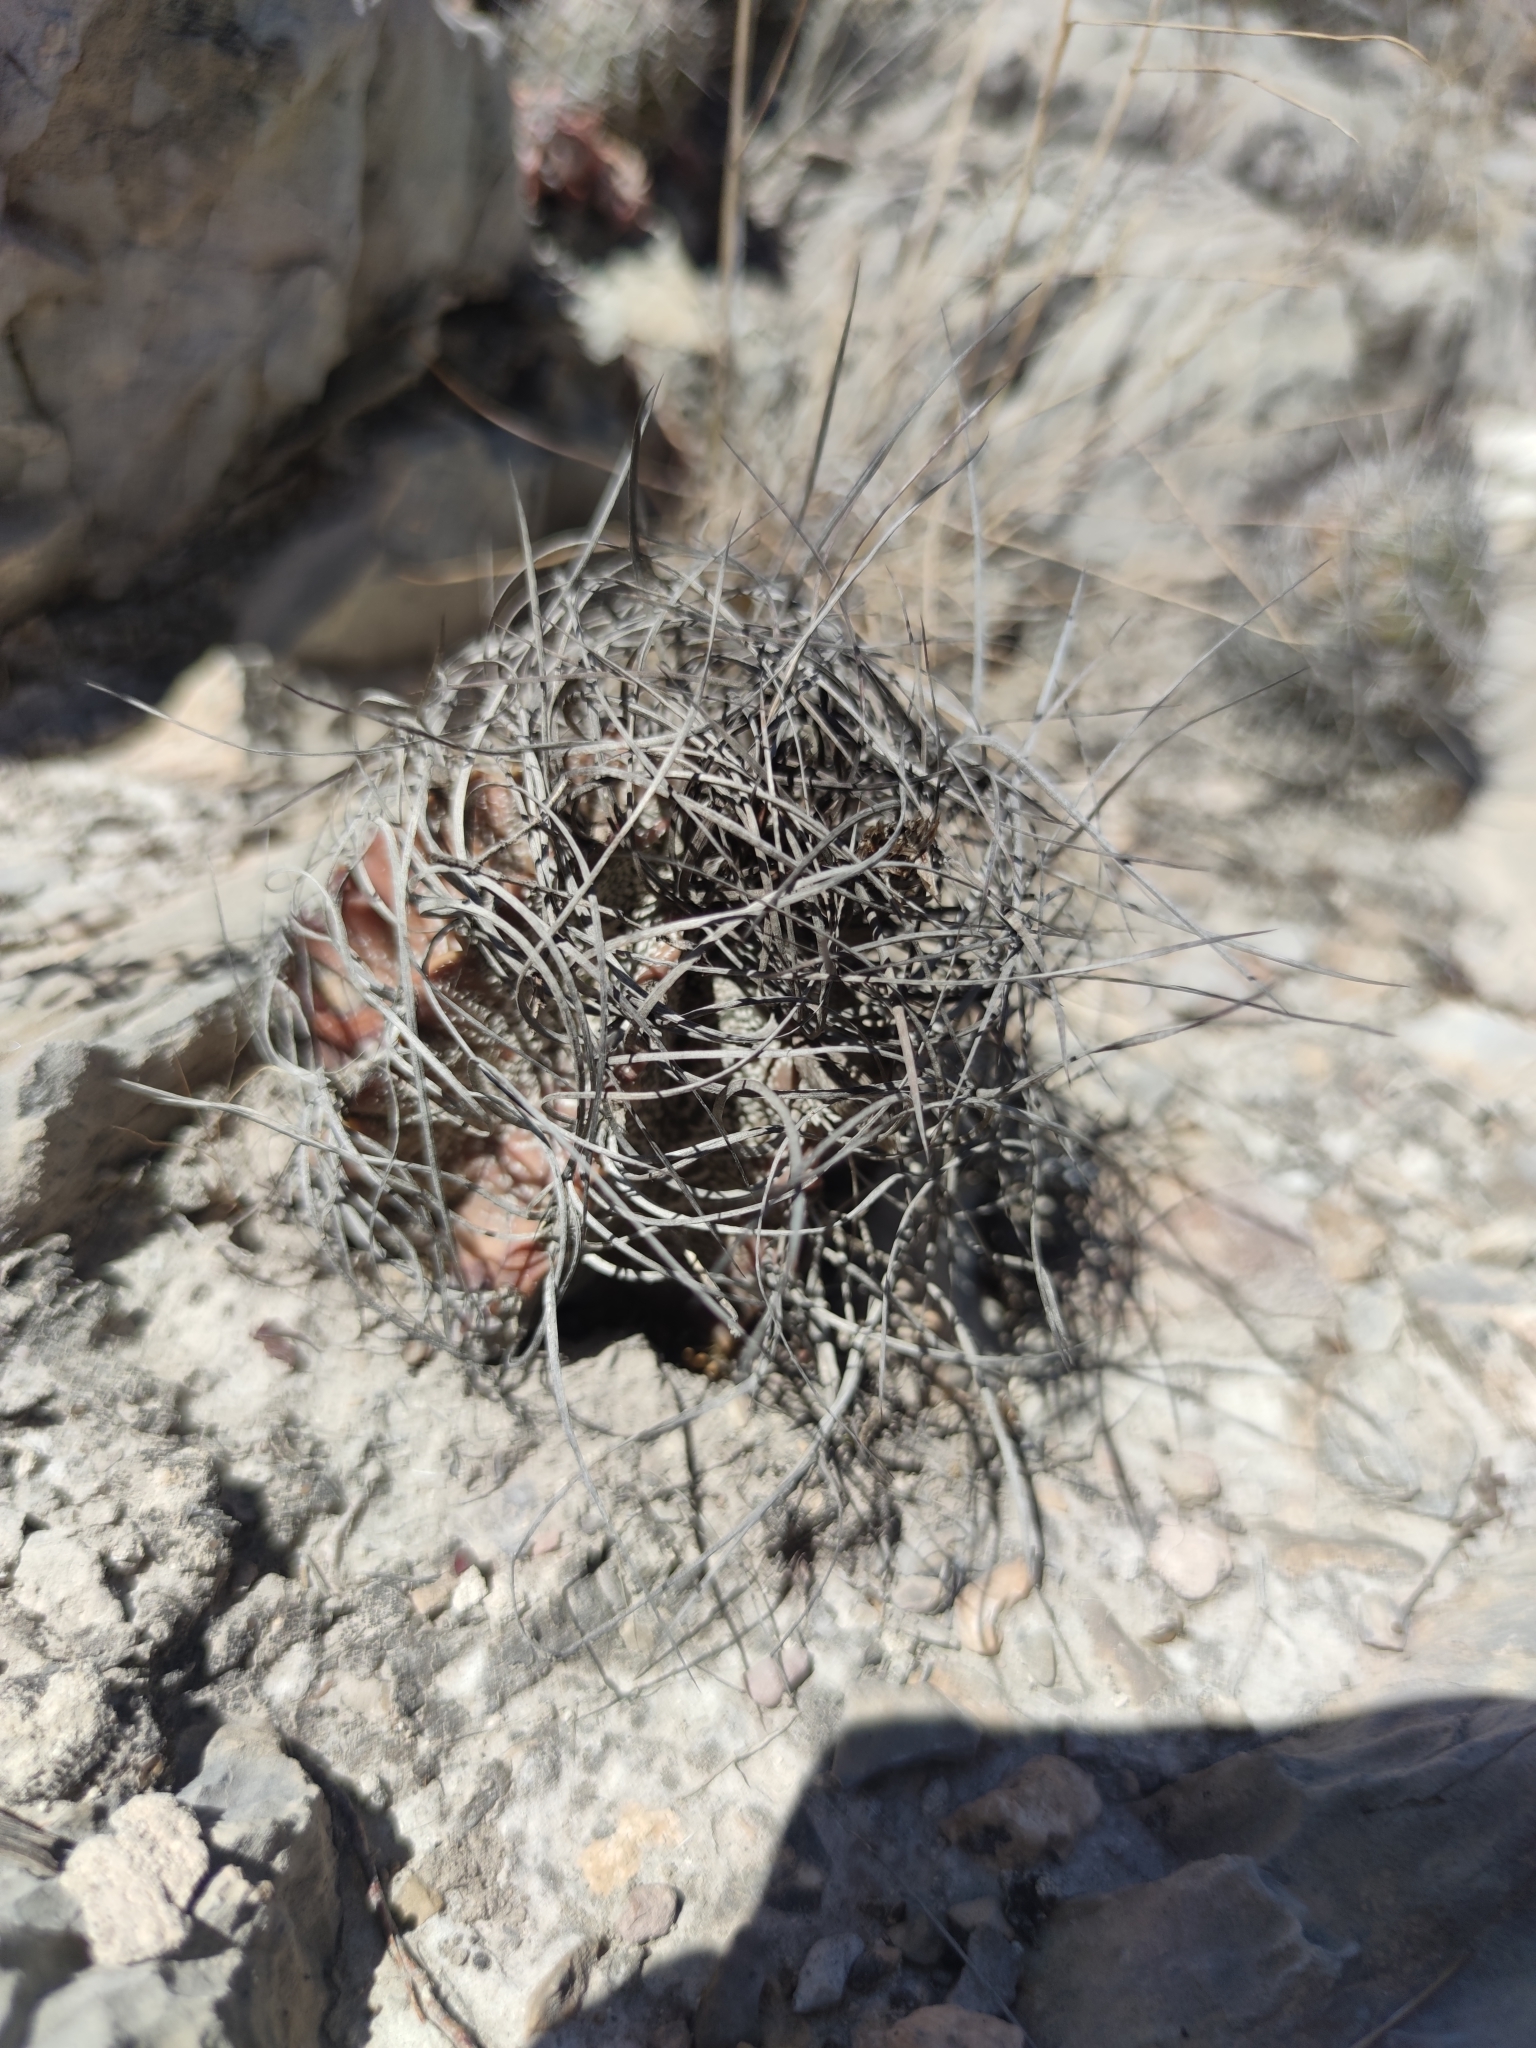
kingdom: Plantae
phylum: Tracheophyta
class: Magnoliopsida
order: Caryophyllales
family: Cactaceae
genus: Astrophytum
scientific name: Astrophytum capricorne
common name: Bishop's-cap
